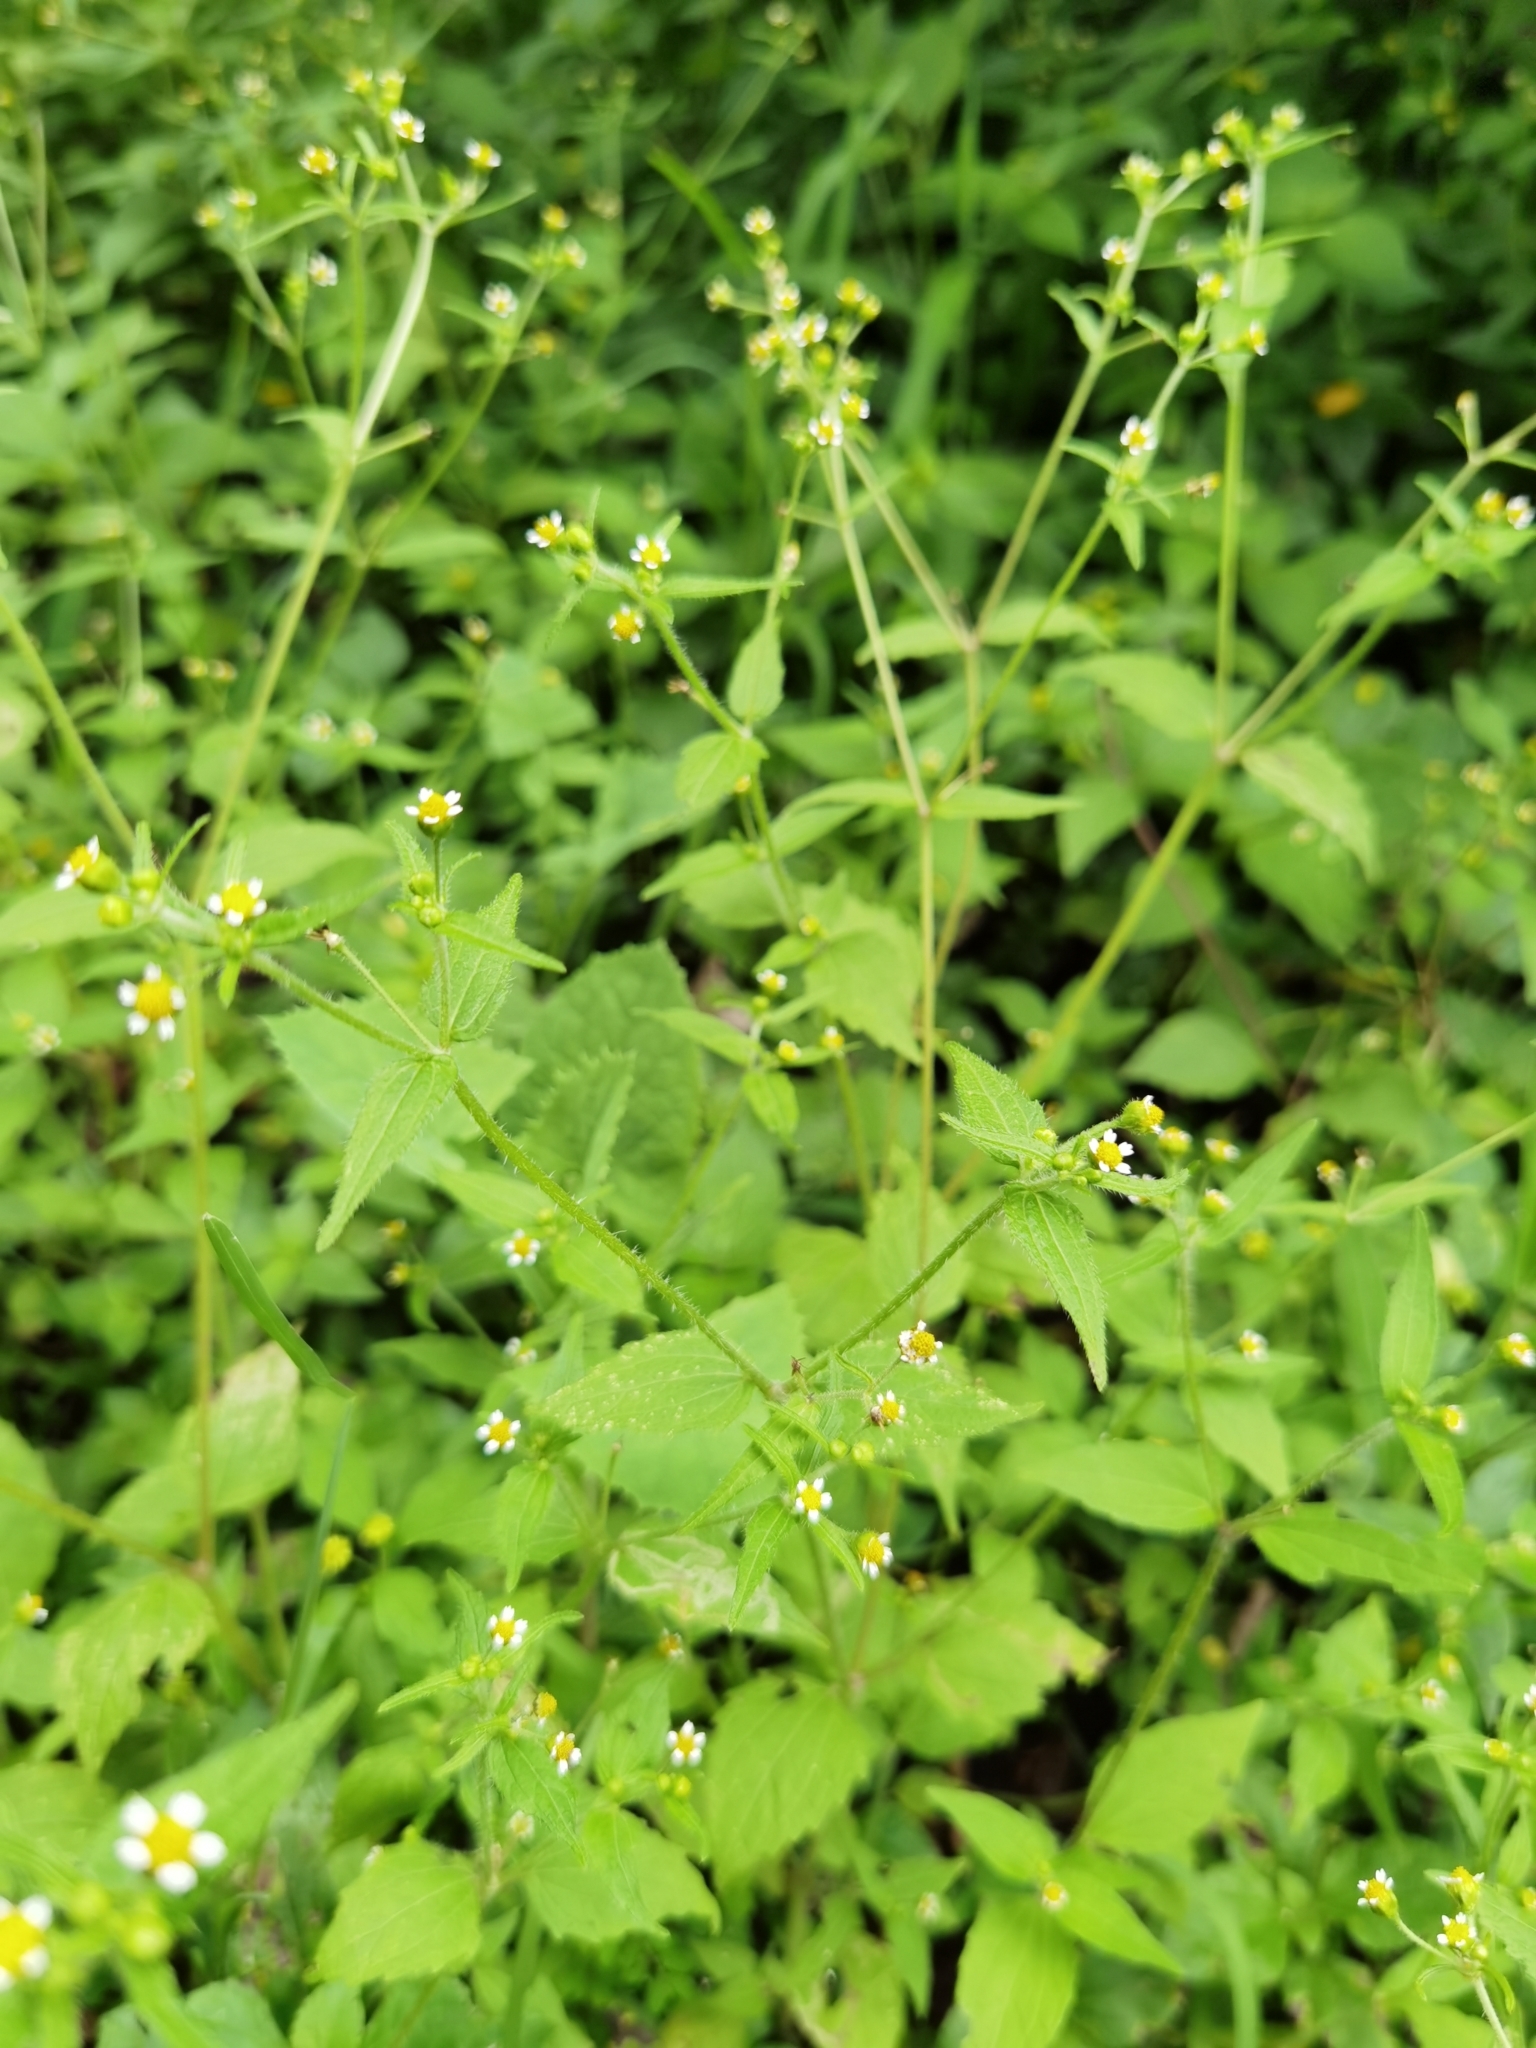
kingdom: Plantae
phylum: Tracheophyta
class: Magnoliopsida
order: Asterales
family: Asteraceae
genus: Galinsoga
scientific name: Galinsoga quadriradiata
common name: Shaggy soldier
